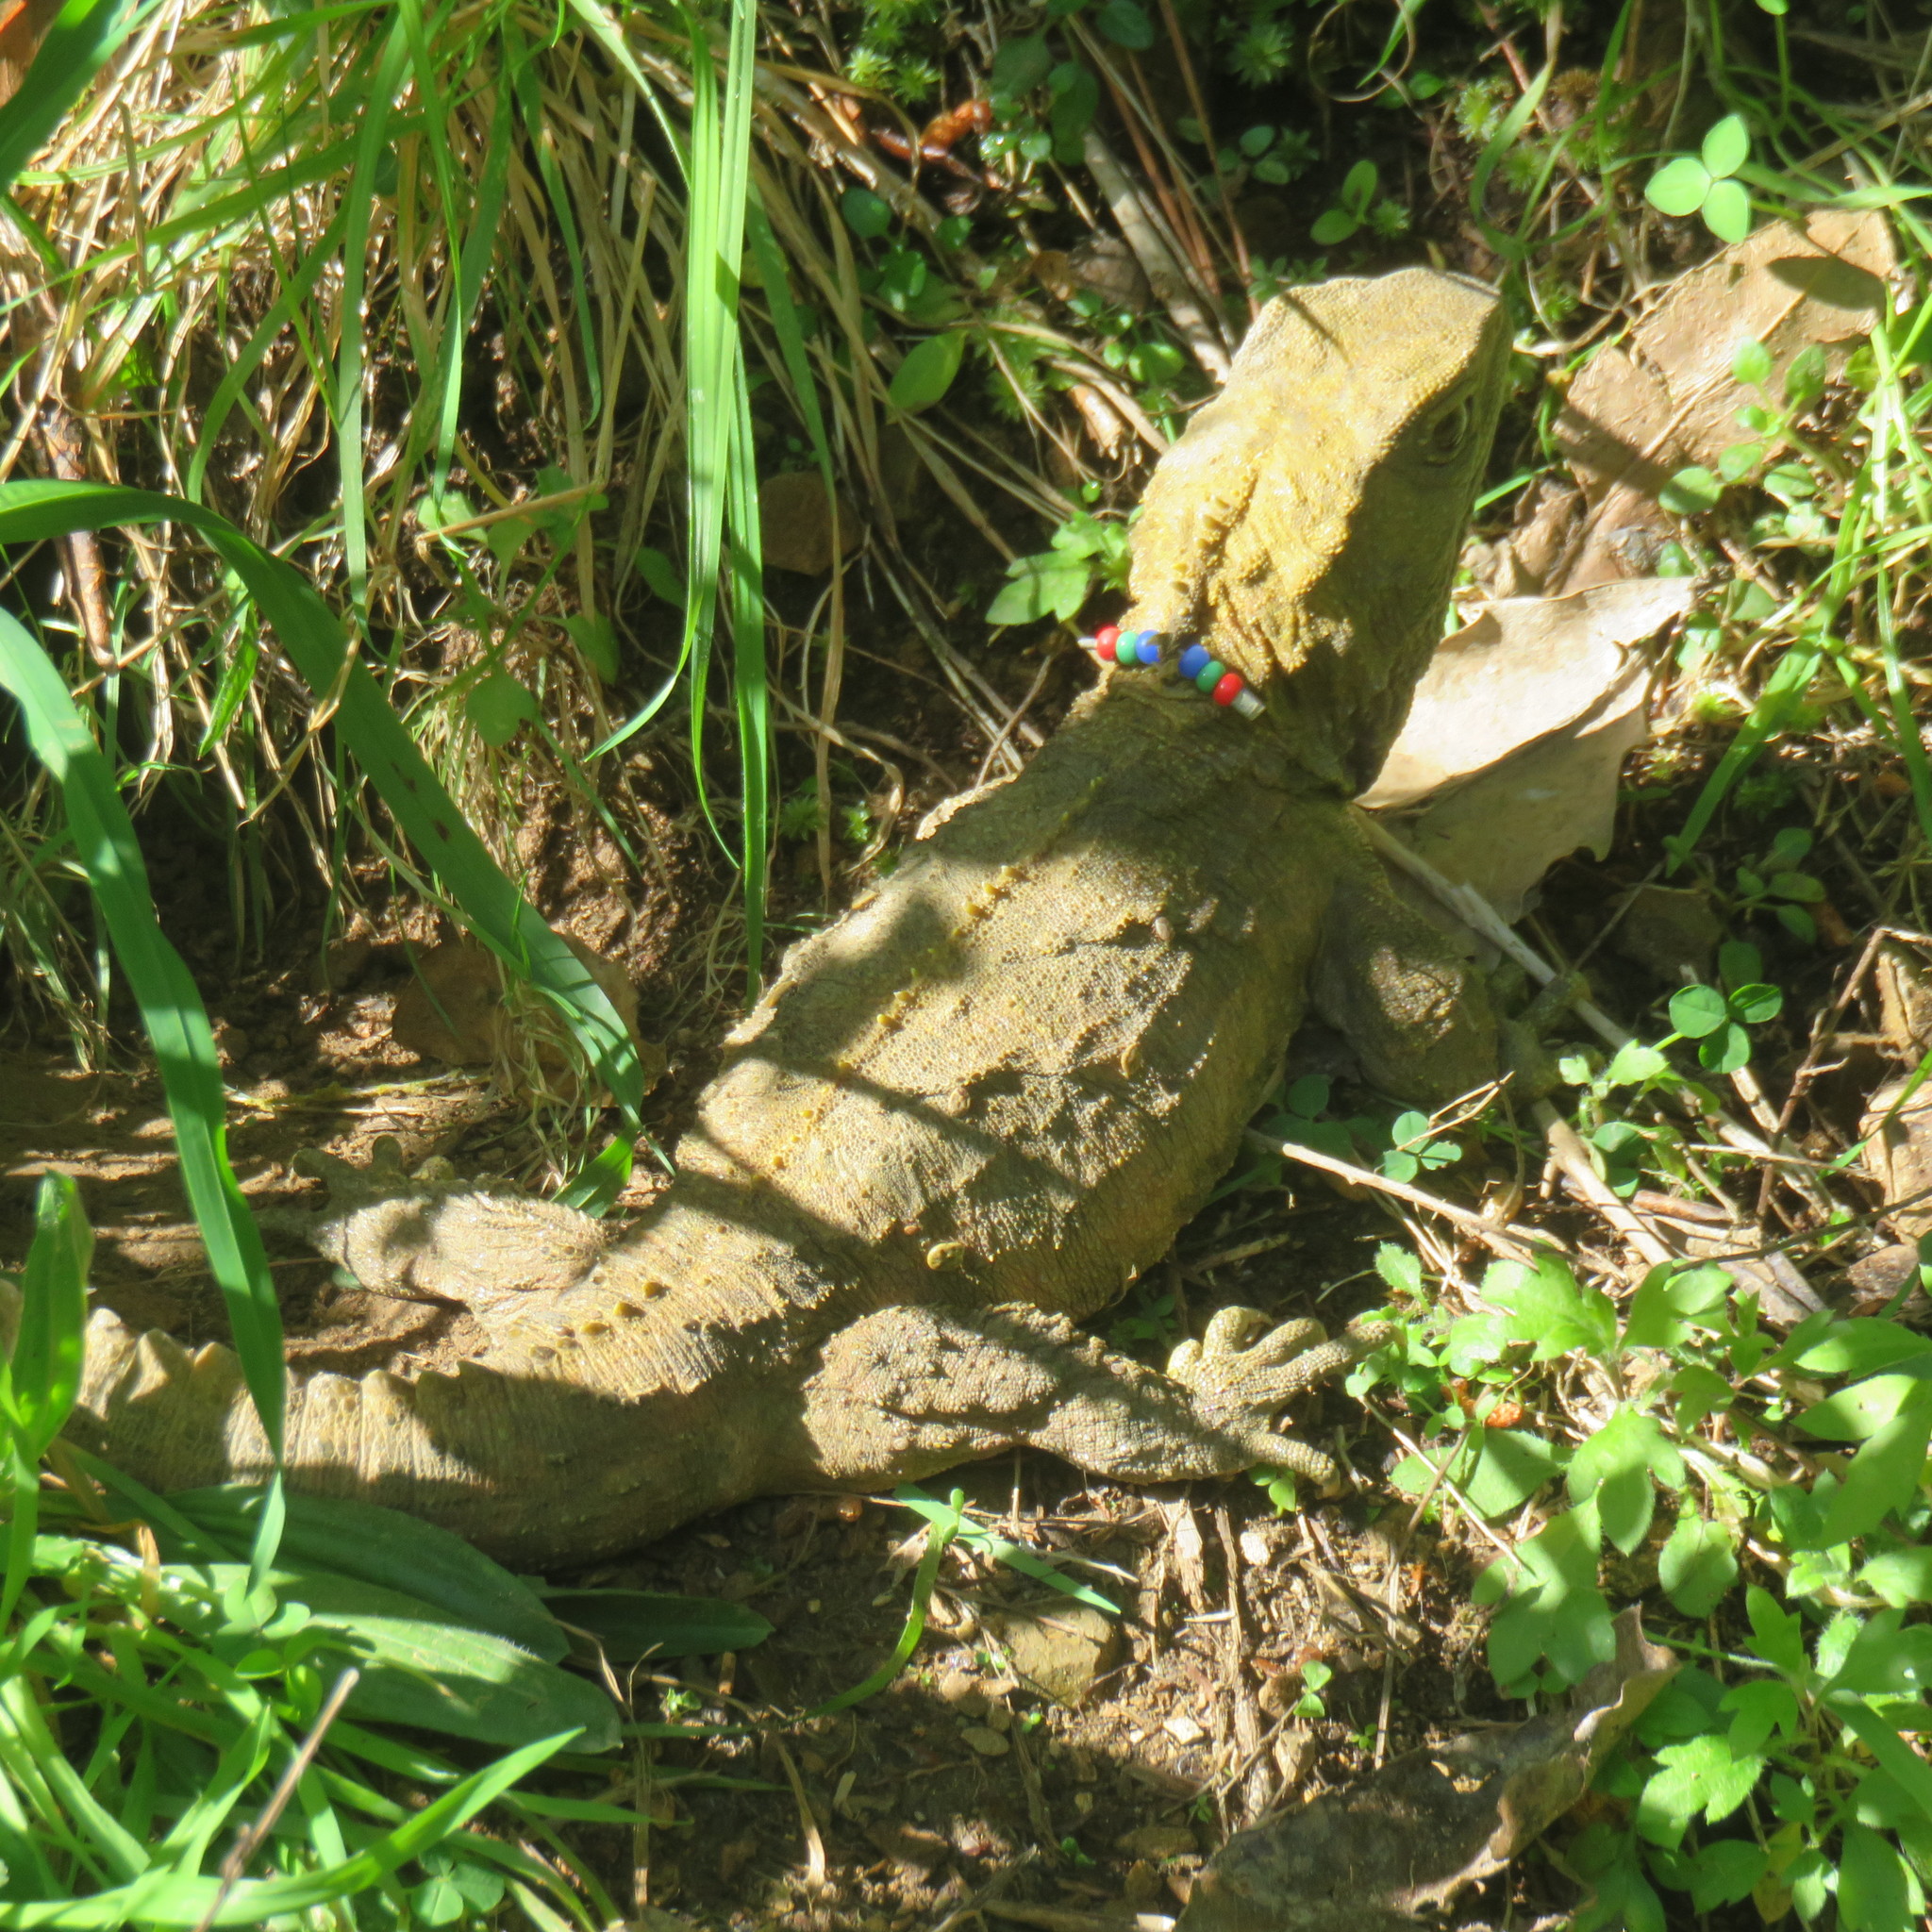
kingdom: Animalia
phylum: Chordata
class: Sphenodontia
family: Sphenodontidae
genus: Sphenodon
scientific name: Sphenodon punctatus
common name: Tuatara
